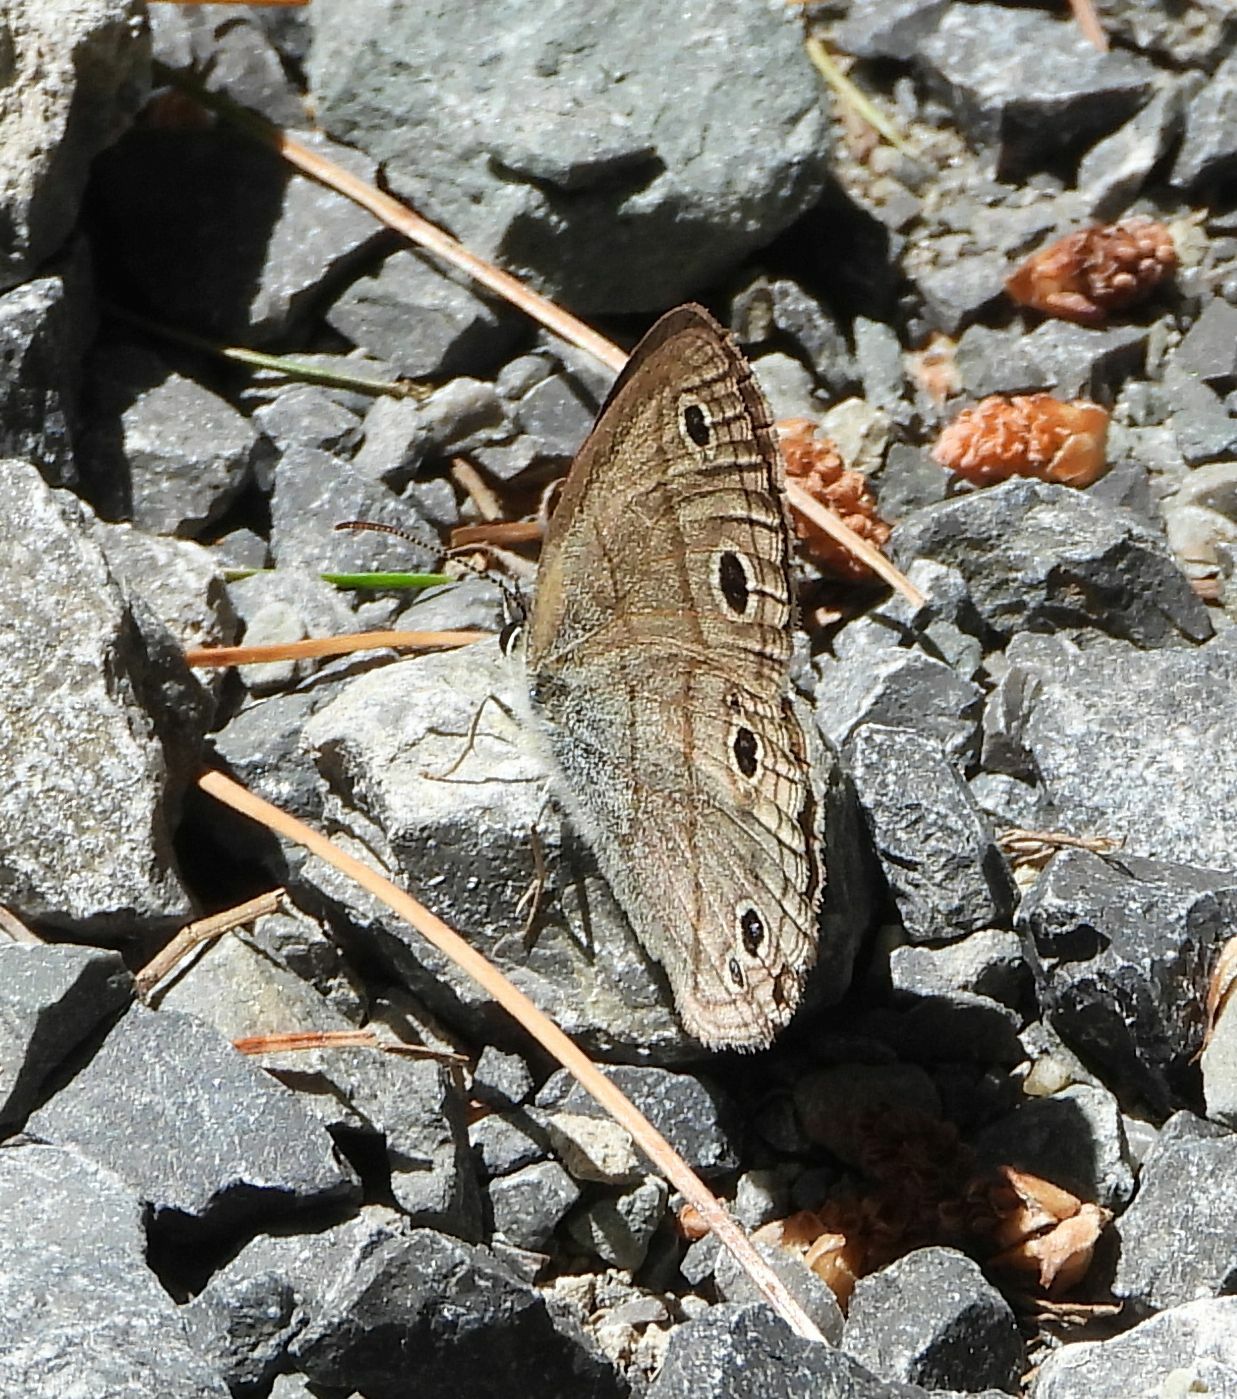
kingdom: Animalia
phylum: Arthropoda
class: Insecta
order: Lepidoptera
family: Nymphalidae
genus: Euptychia
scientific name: Euptychia cymela
